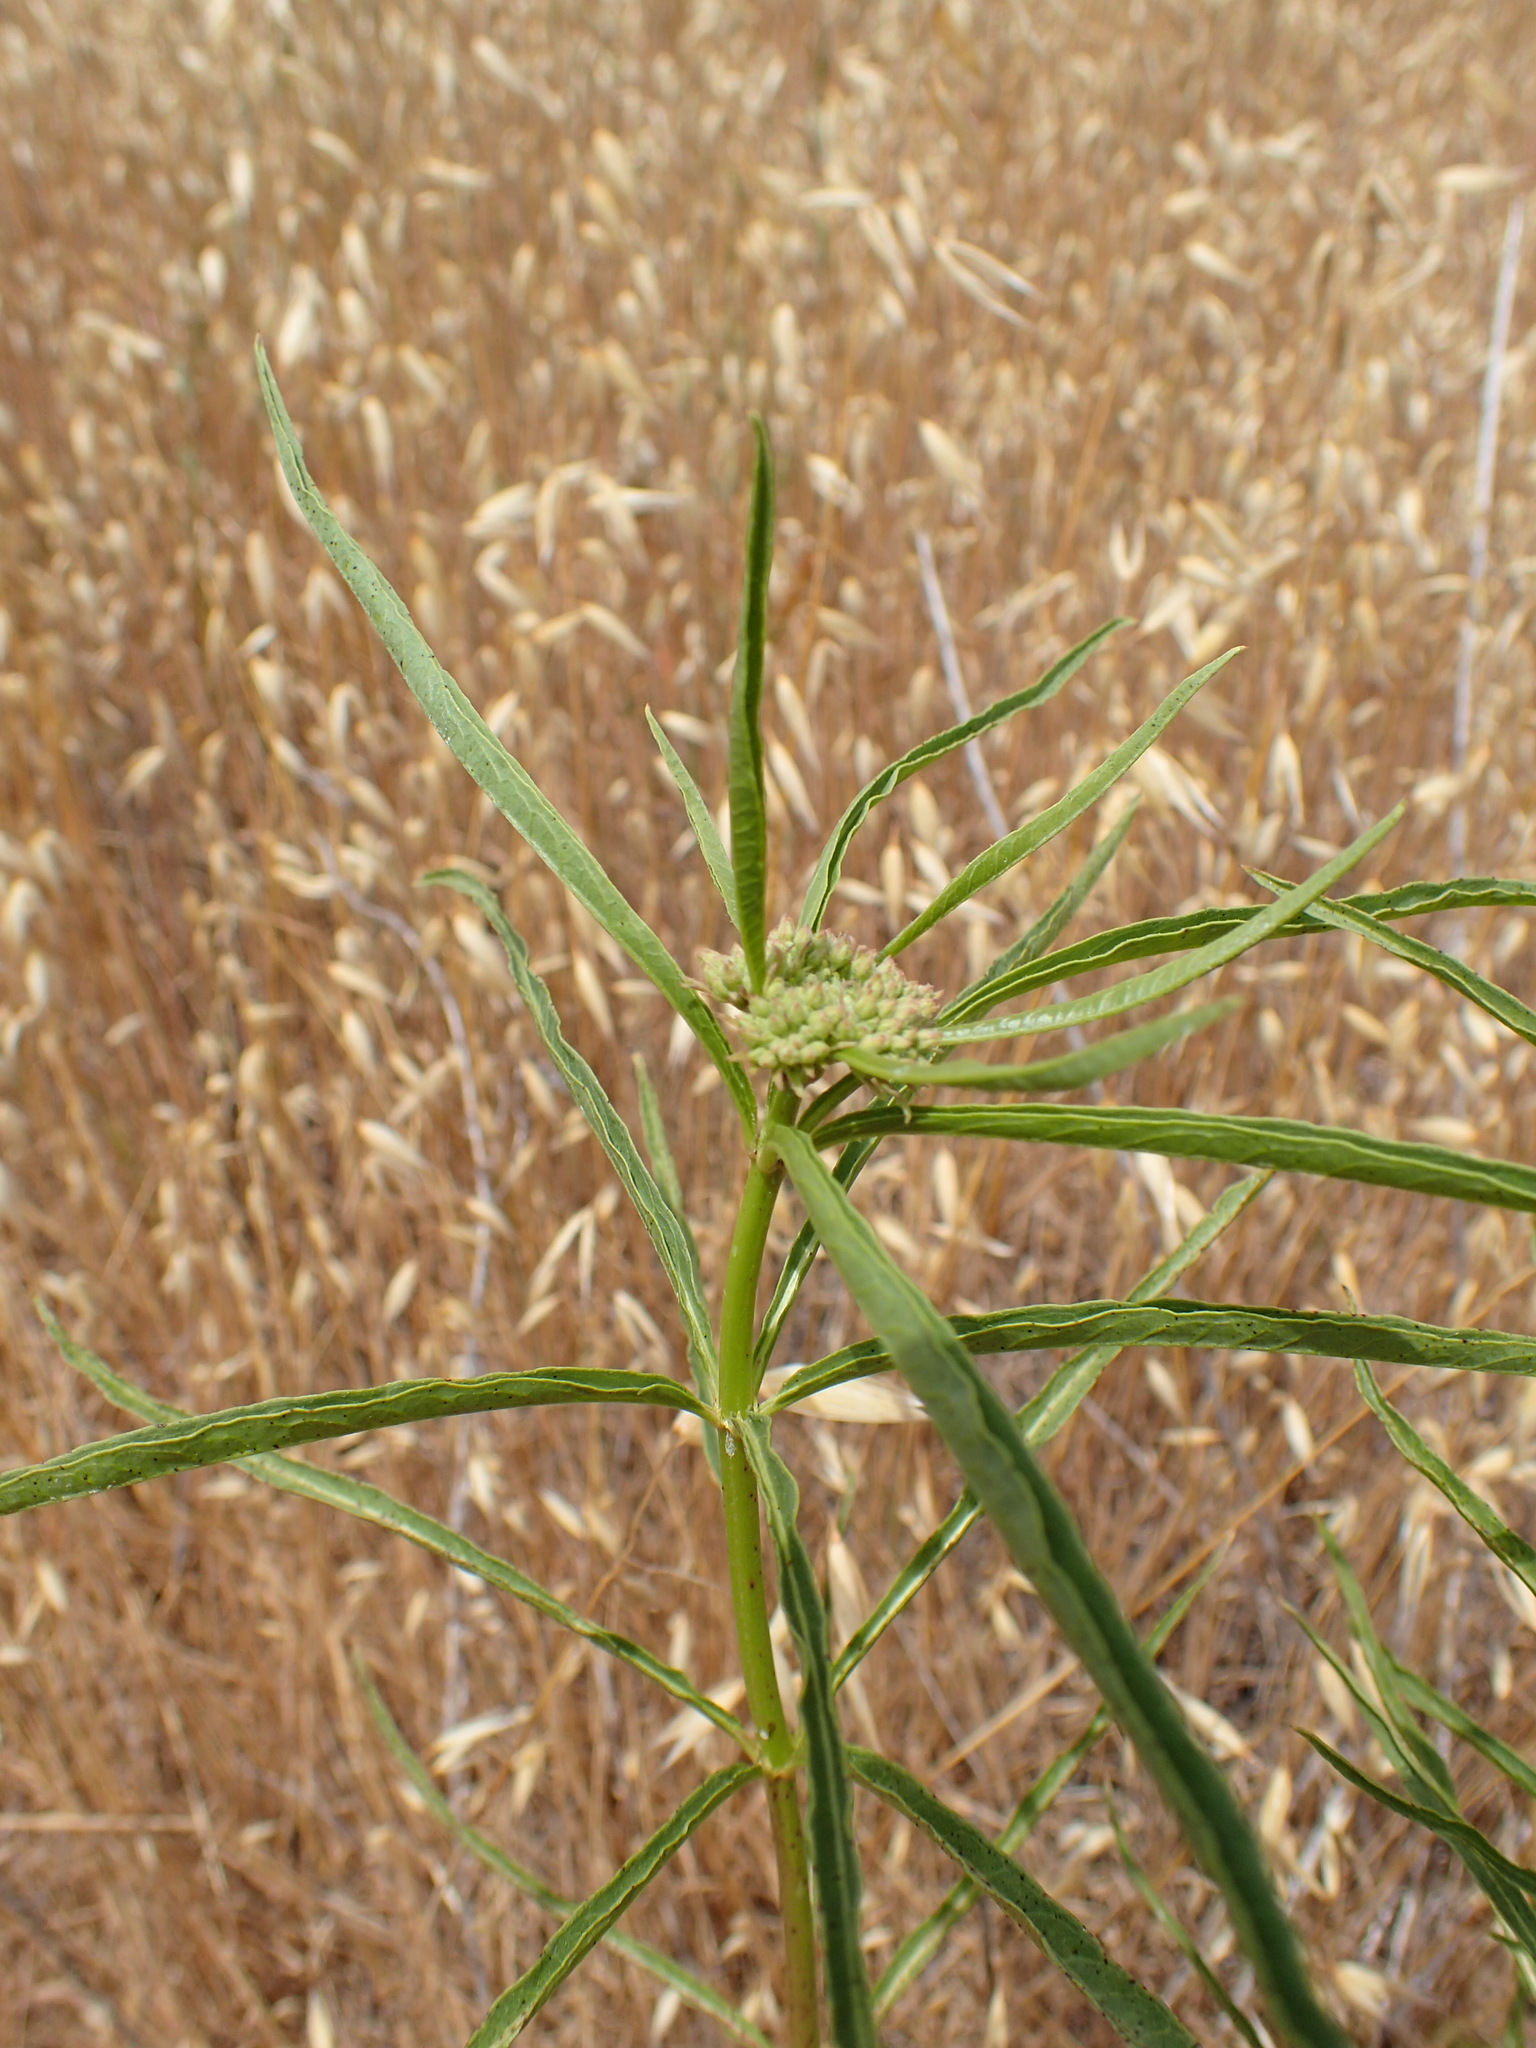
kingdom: Plantae
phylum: Tracheophyta
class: Magnoliopsida
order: Gentianales
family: Apocynaceae
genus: Asclepias
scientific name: Asclepias fascicularis
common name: Mexican milkweed
